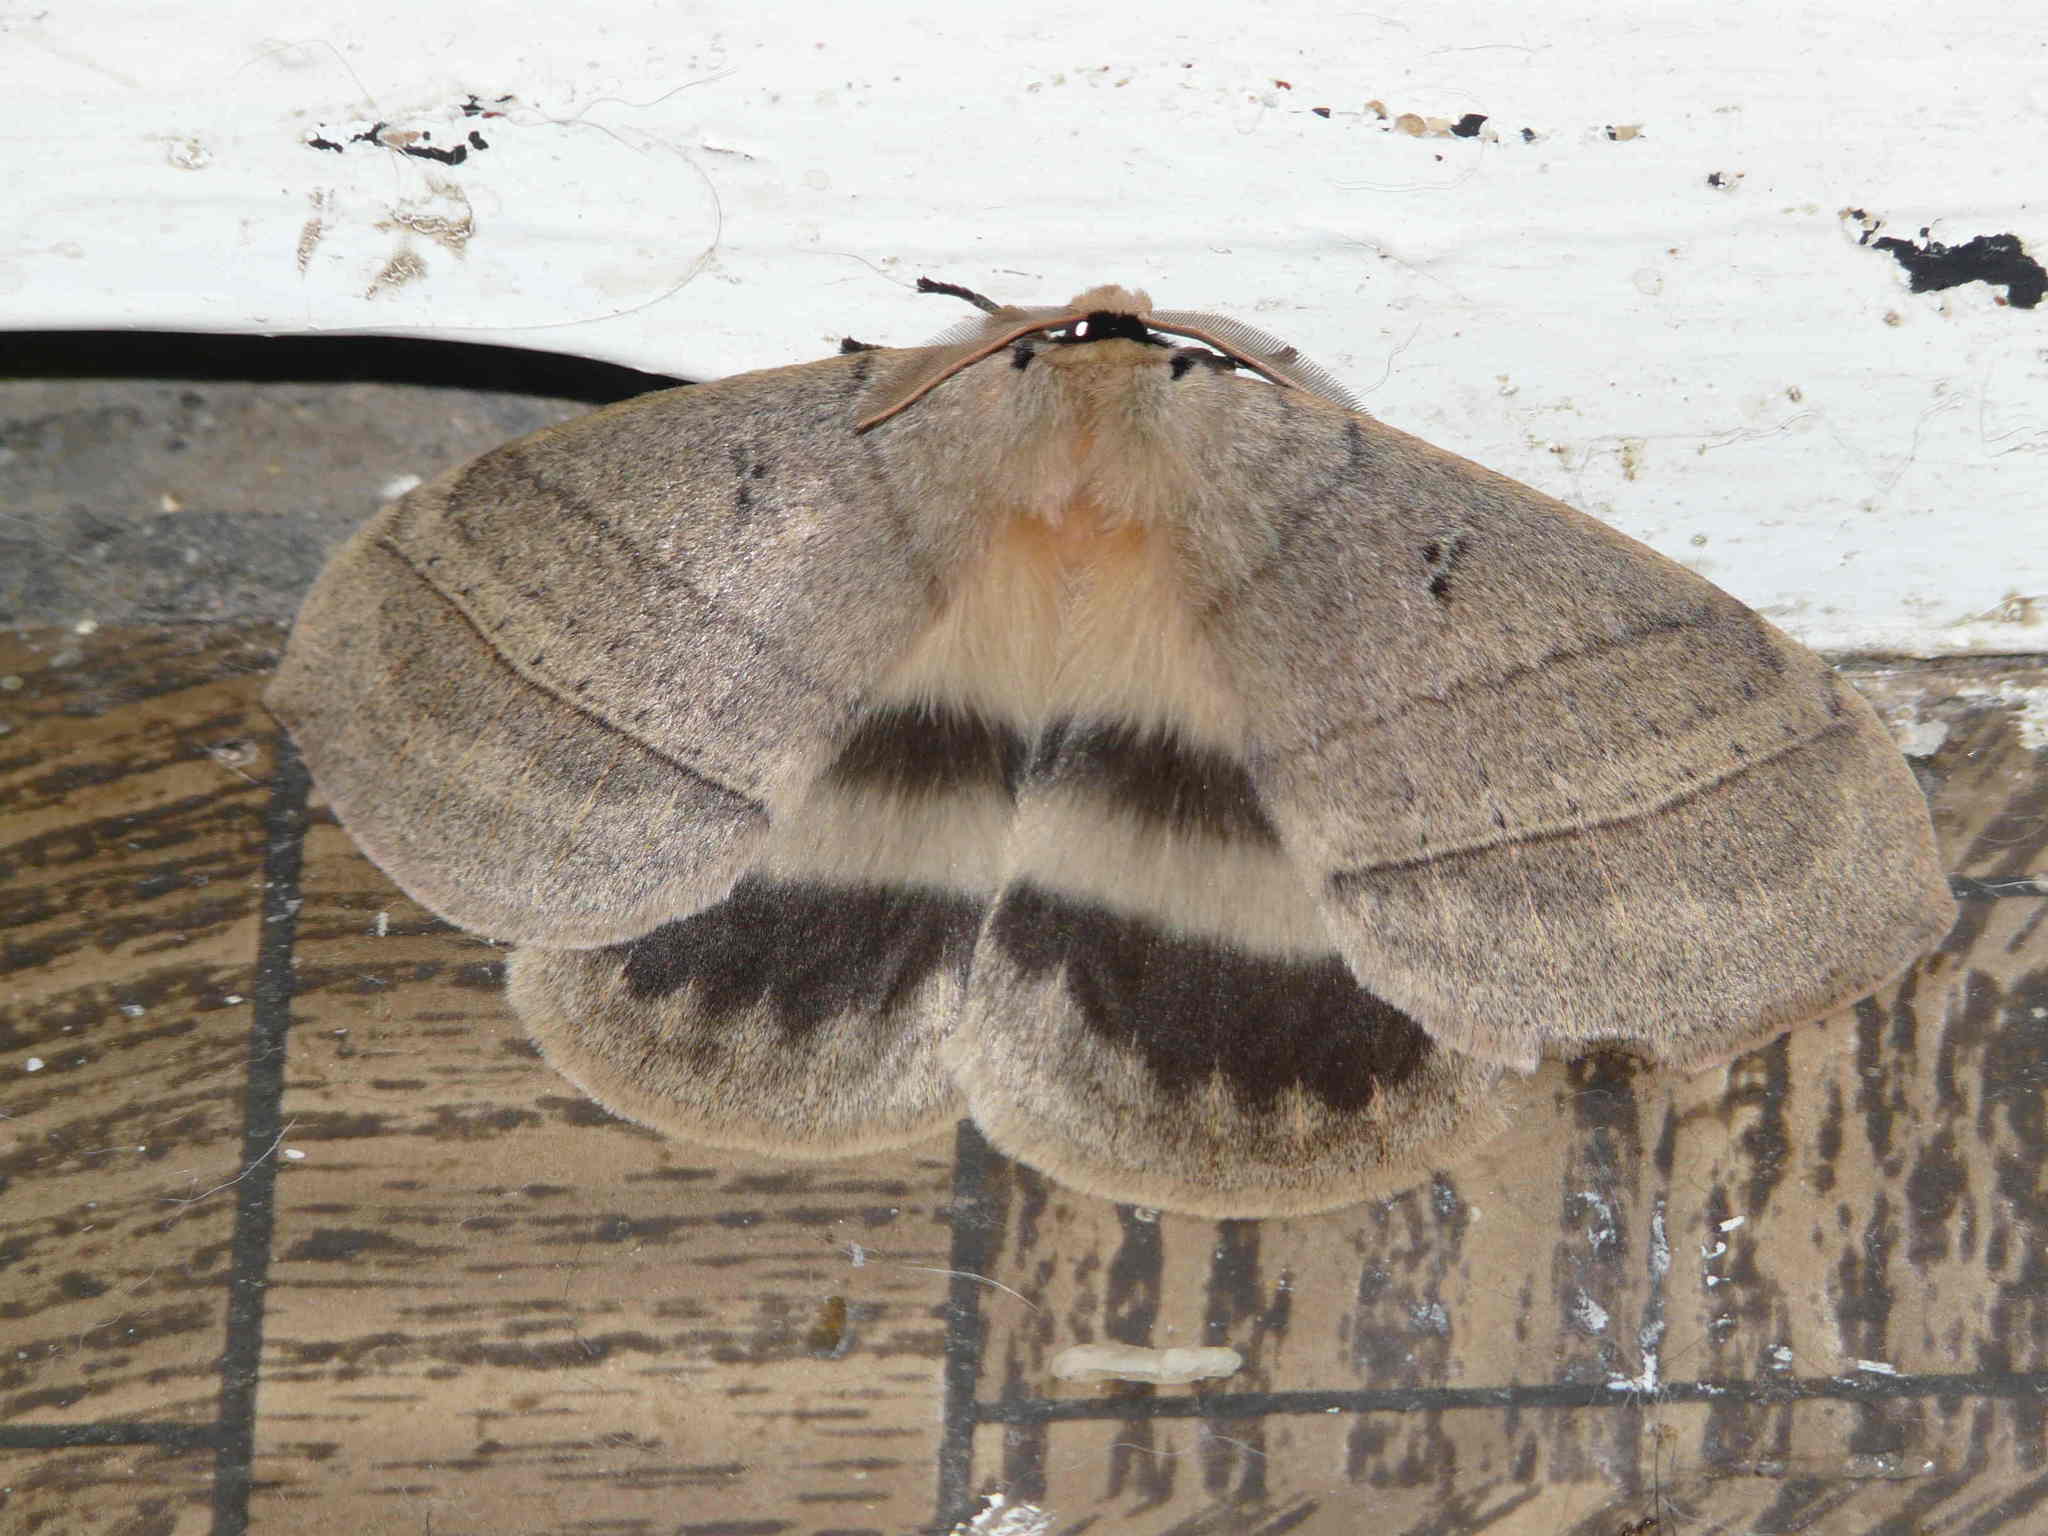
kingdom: Animalia
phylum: Arthropoda
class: Insecta
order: Lepidoptera
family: Eupterotidae
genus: Jana
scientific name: Jana eurymas
